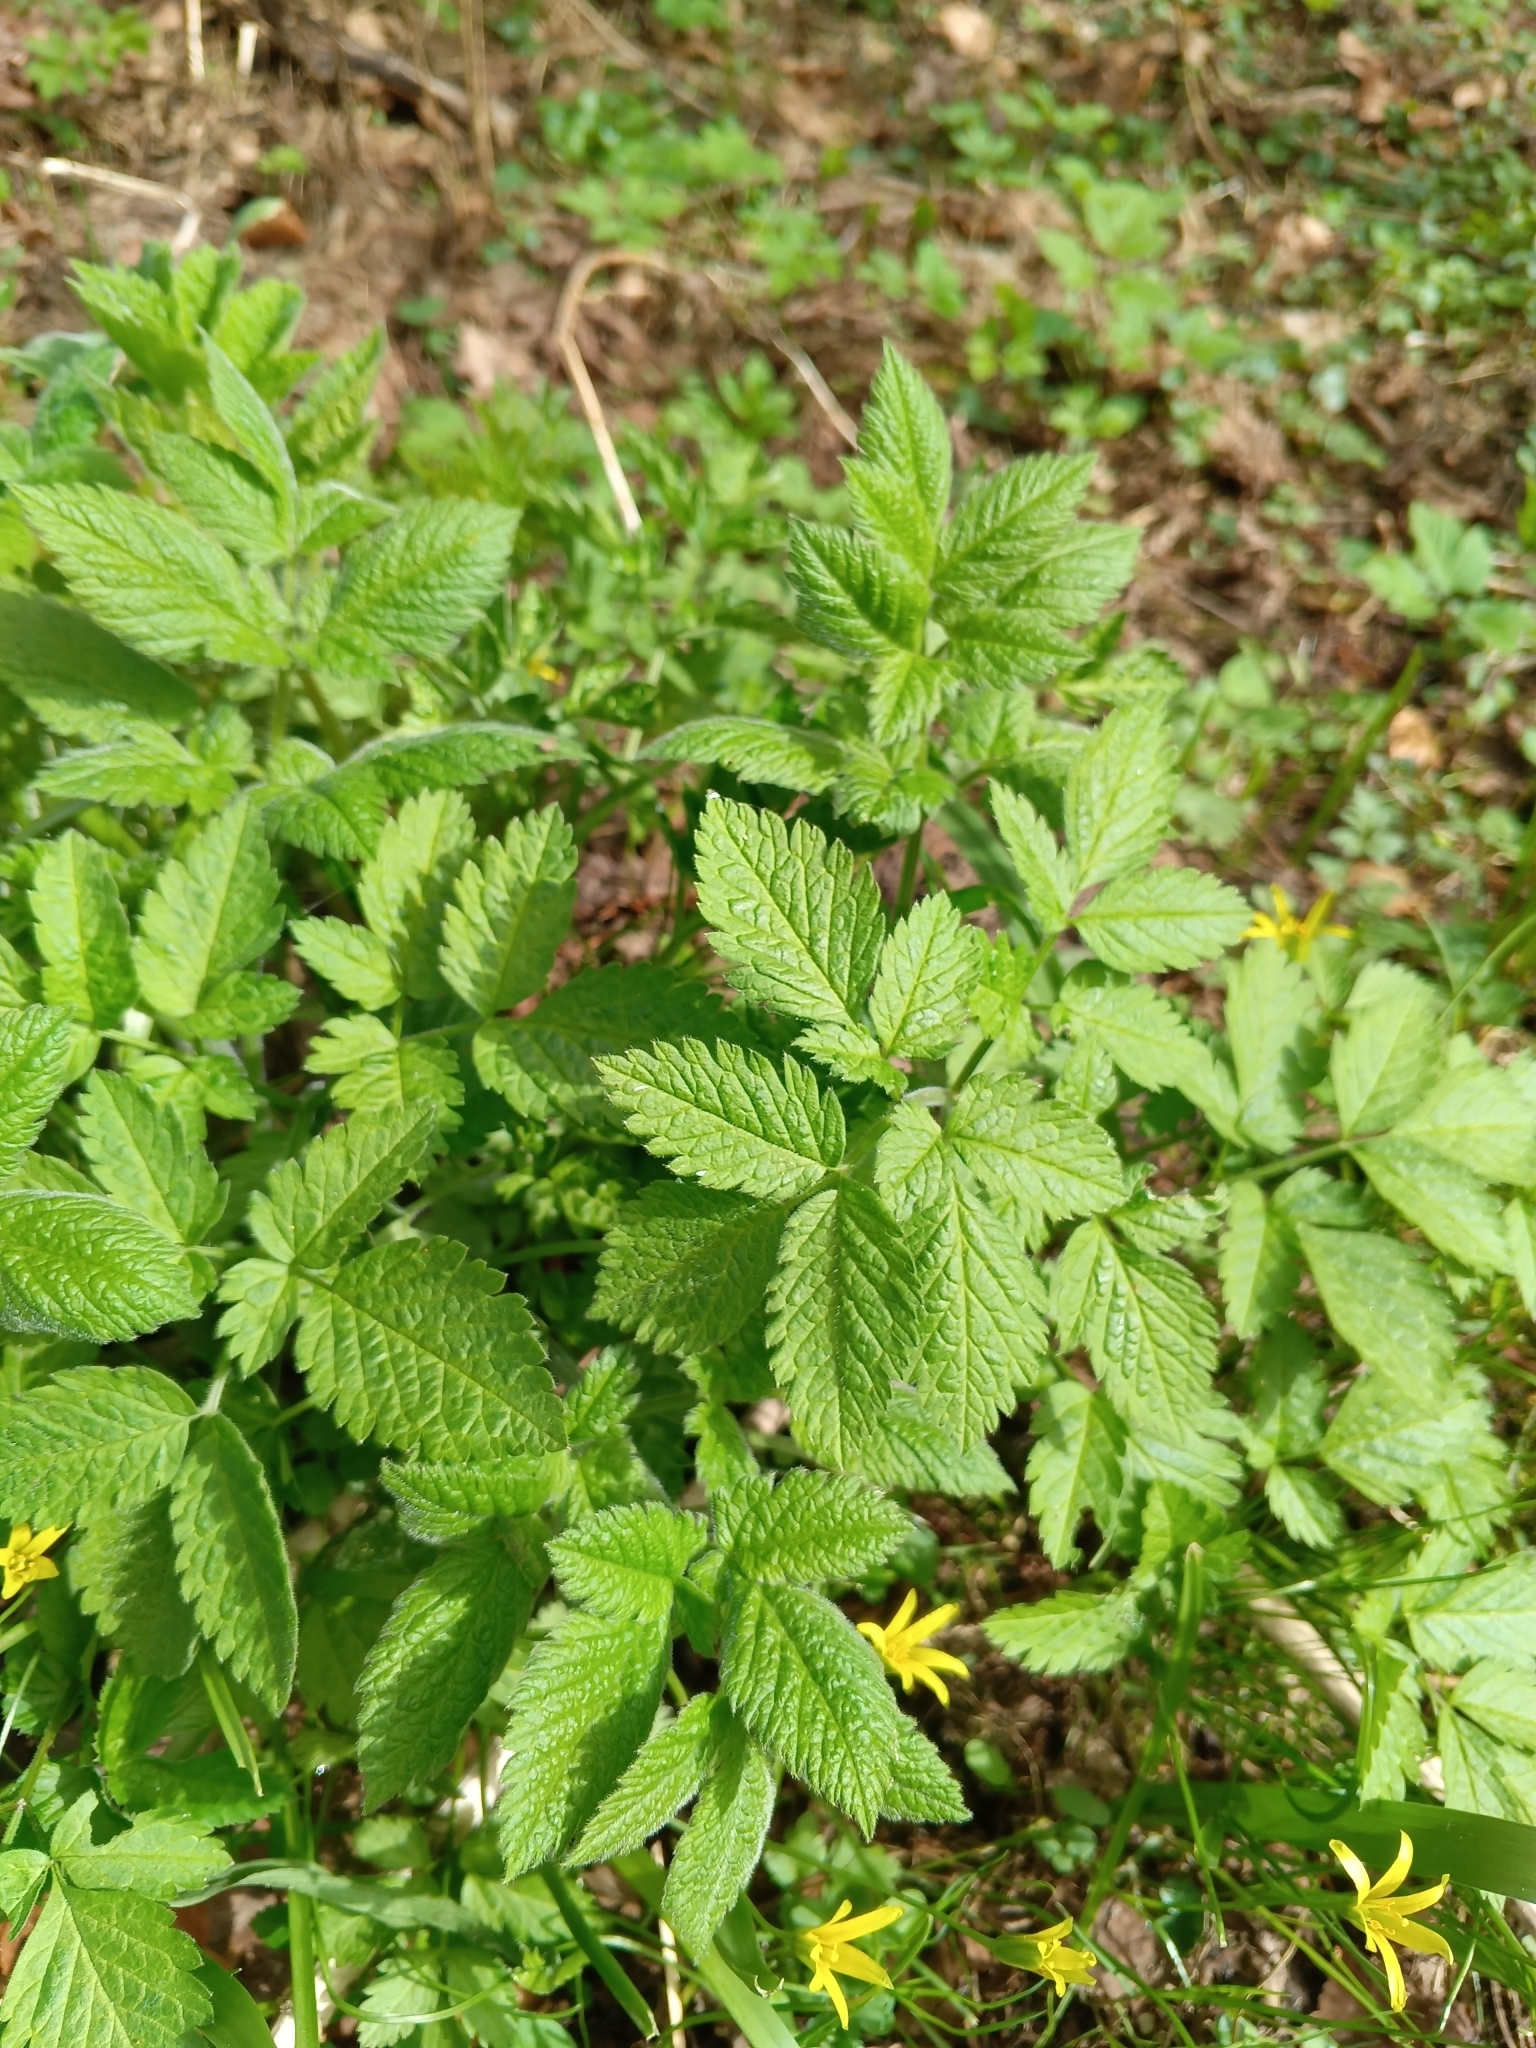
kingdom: Plantae
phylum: Tracheophyta
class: Magnoliopsida
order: Apiales
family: Apiaceae
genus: Chaerophyllum
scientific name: Chaerophyllum aromaticum
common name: Broadleaf chervil
